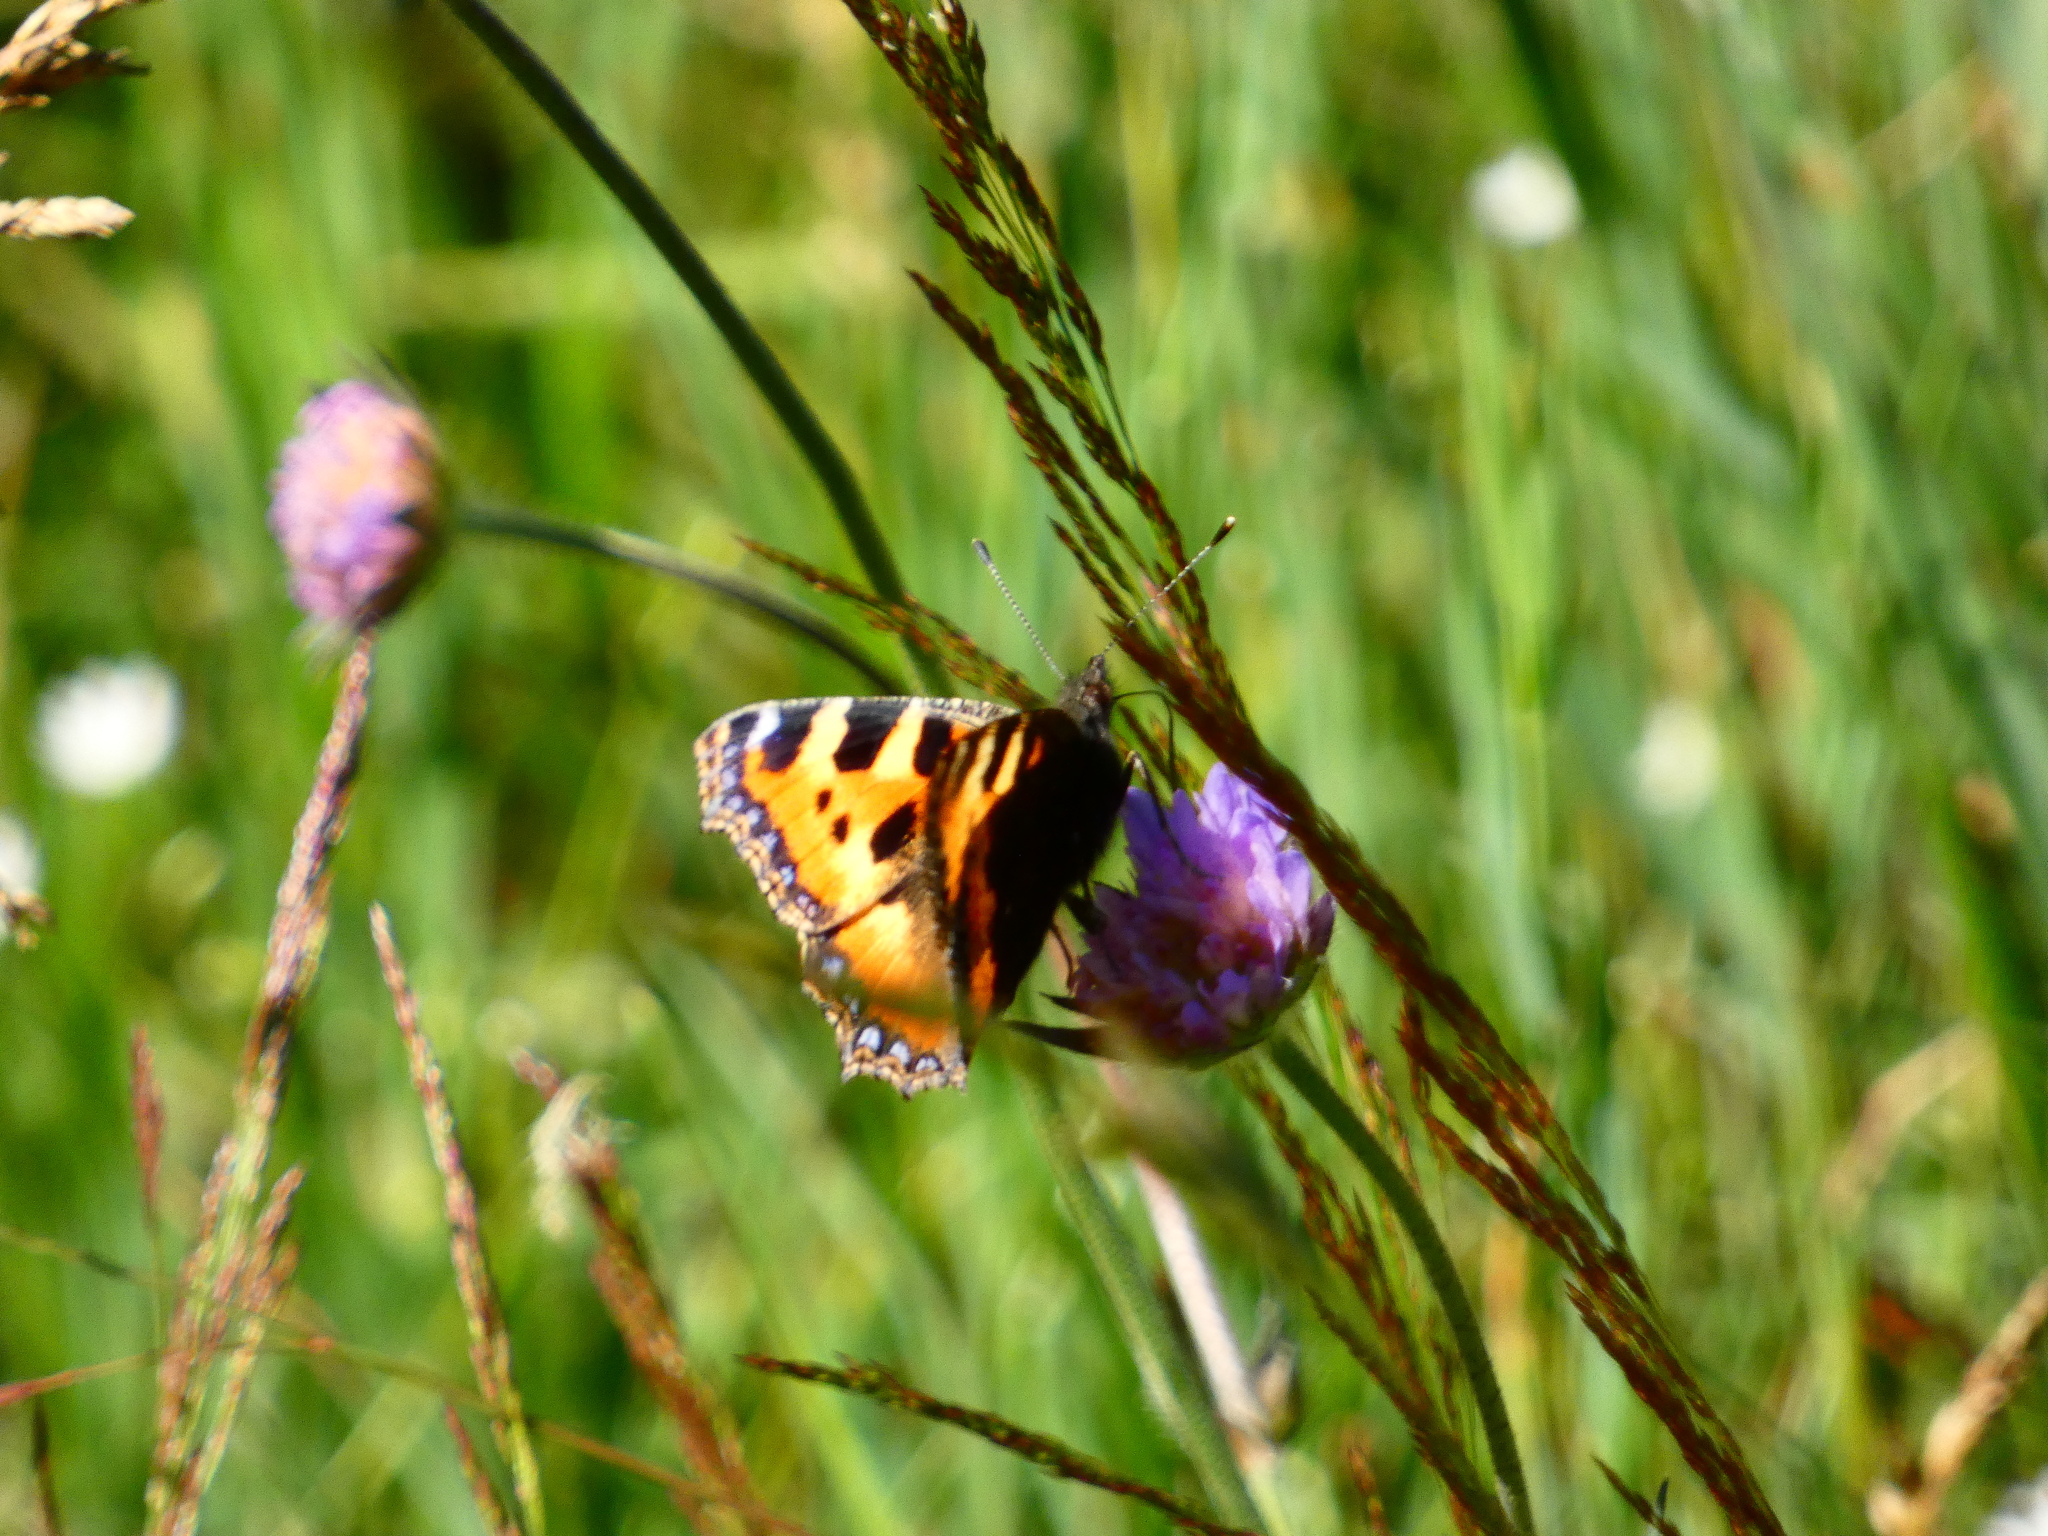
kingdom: Animalia
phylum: Arthropoda
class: Insecta
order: Lepidoptera
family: Nymphalidae
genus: Aglais
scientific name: Aglais urticae
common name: Small tortoiseshell
